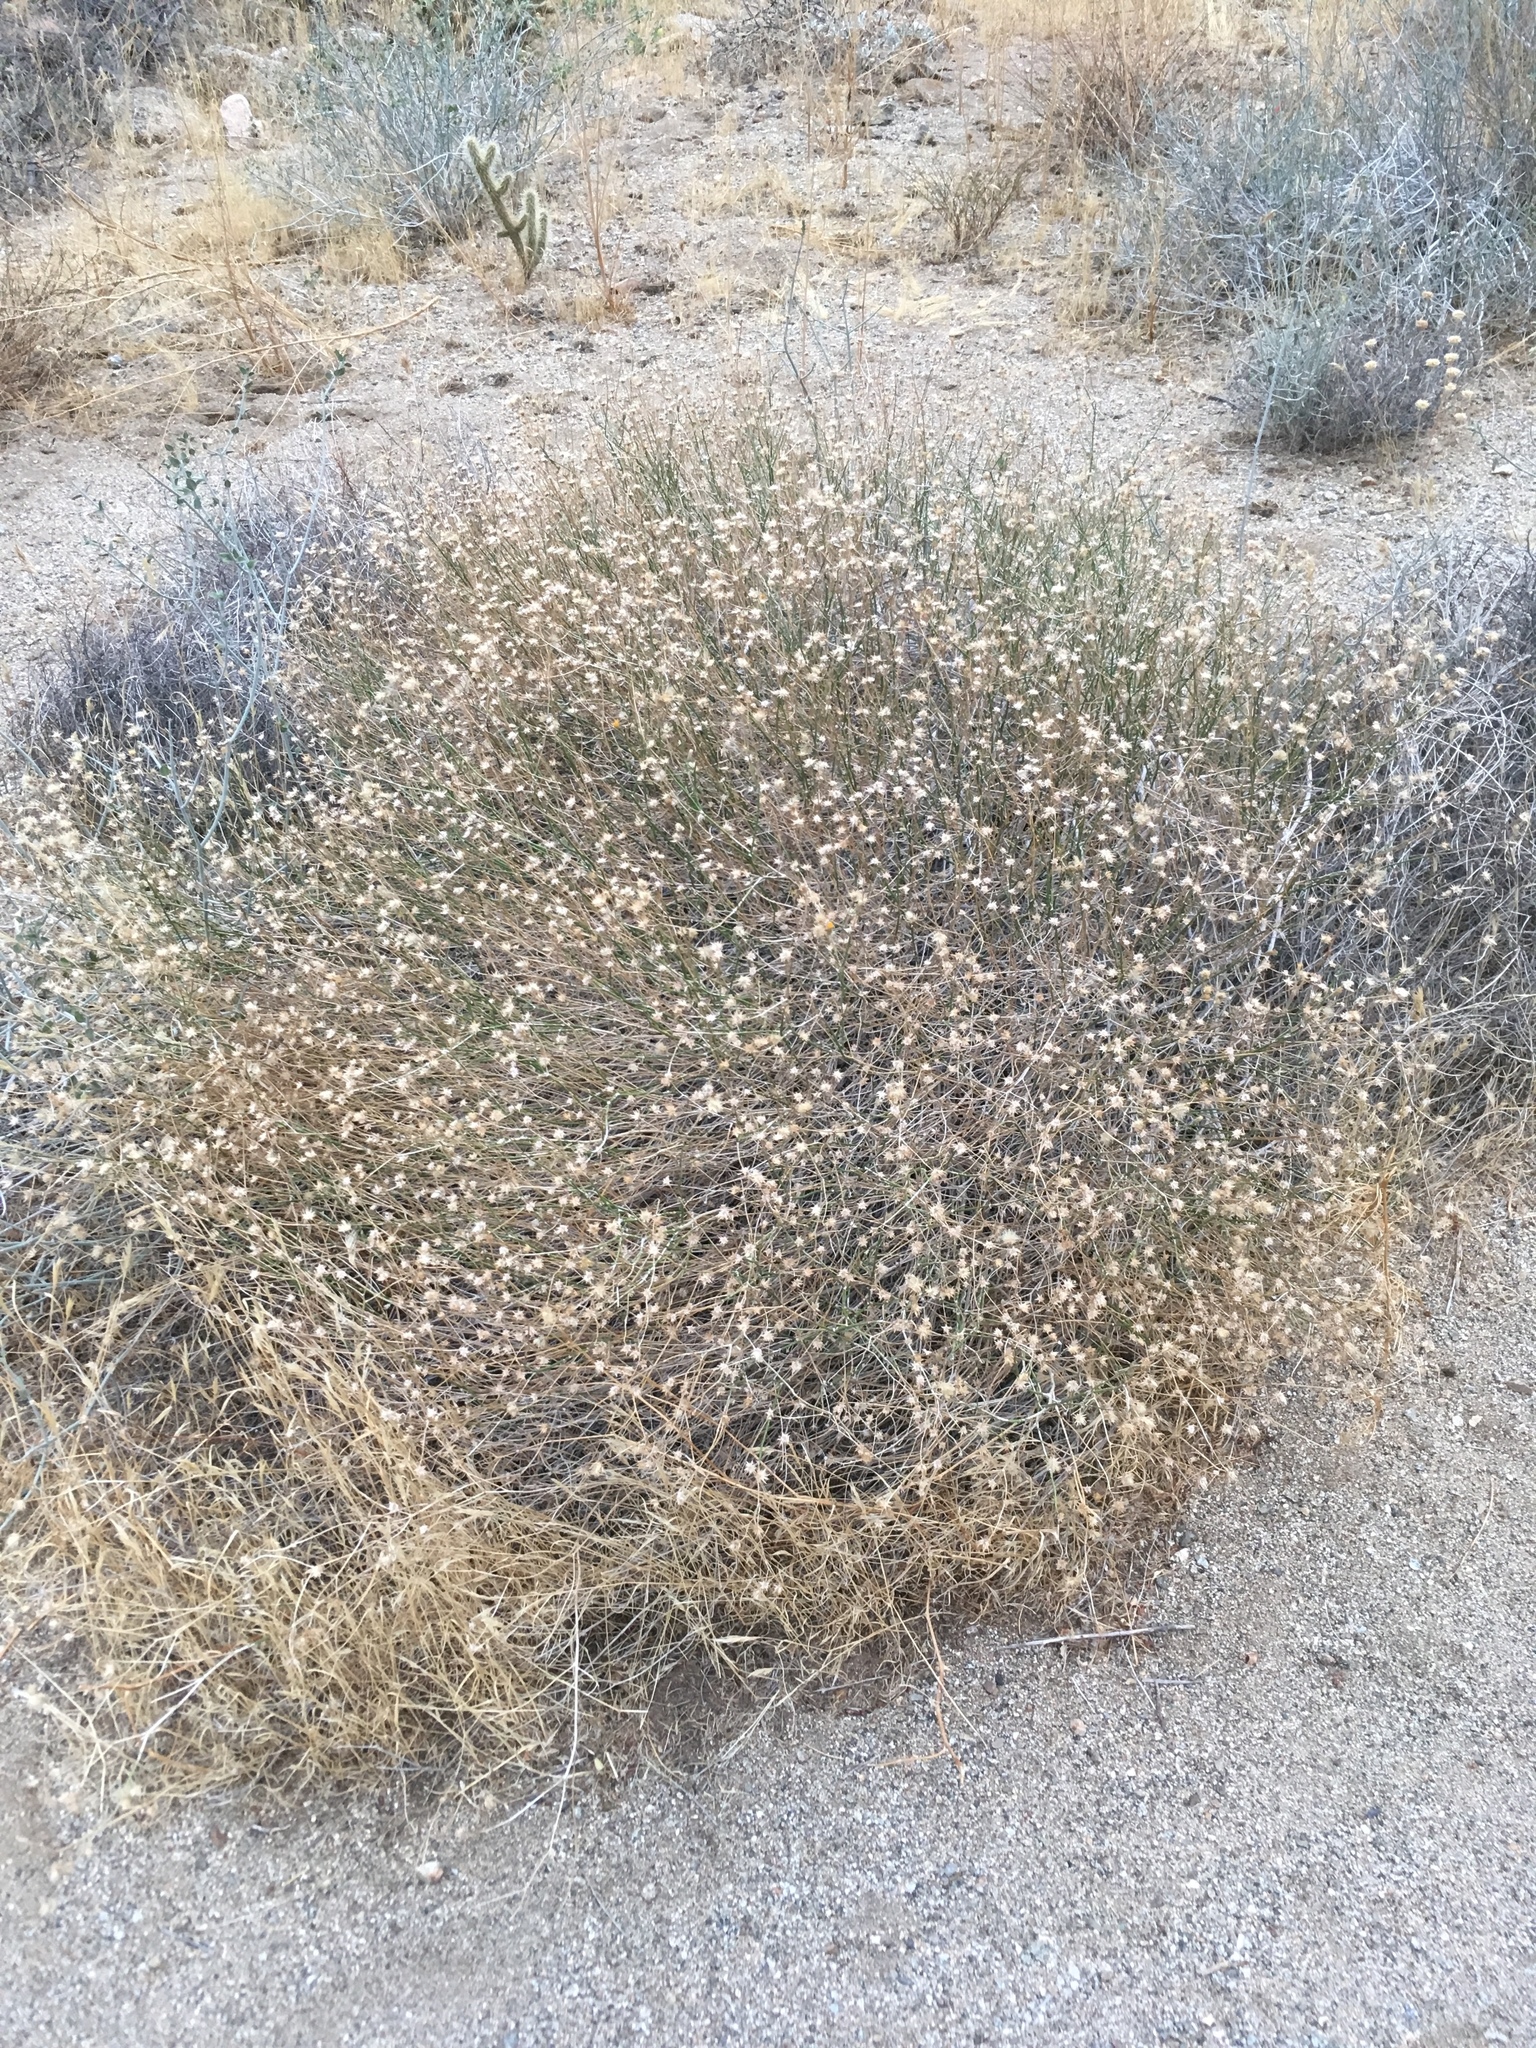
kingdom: Plantae
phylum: Tracheophyta
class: Magnoliopsida
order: Asterales
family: Asteraceae
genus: Bebbia
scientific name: Bebbia juncea
